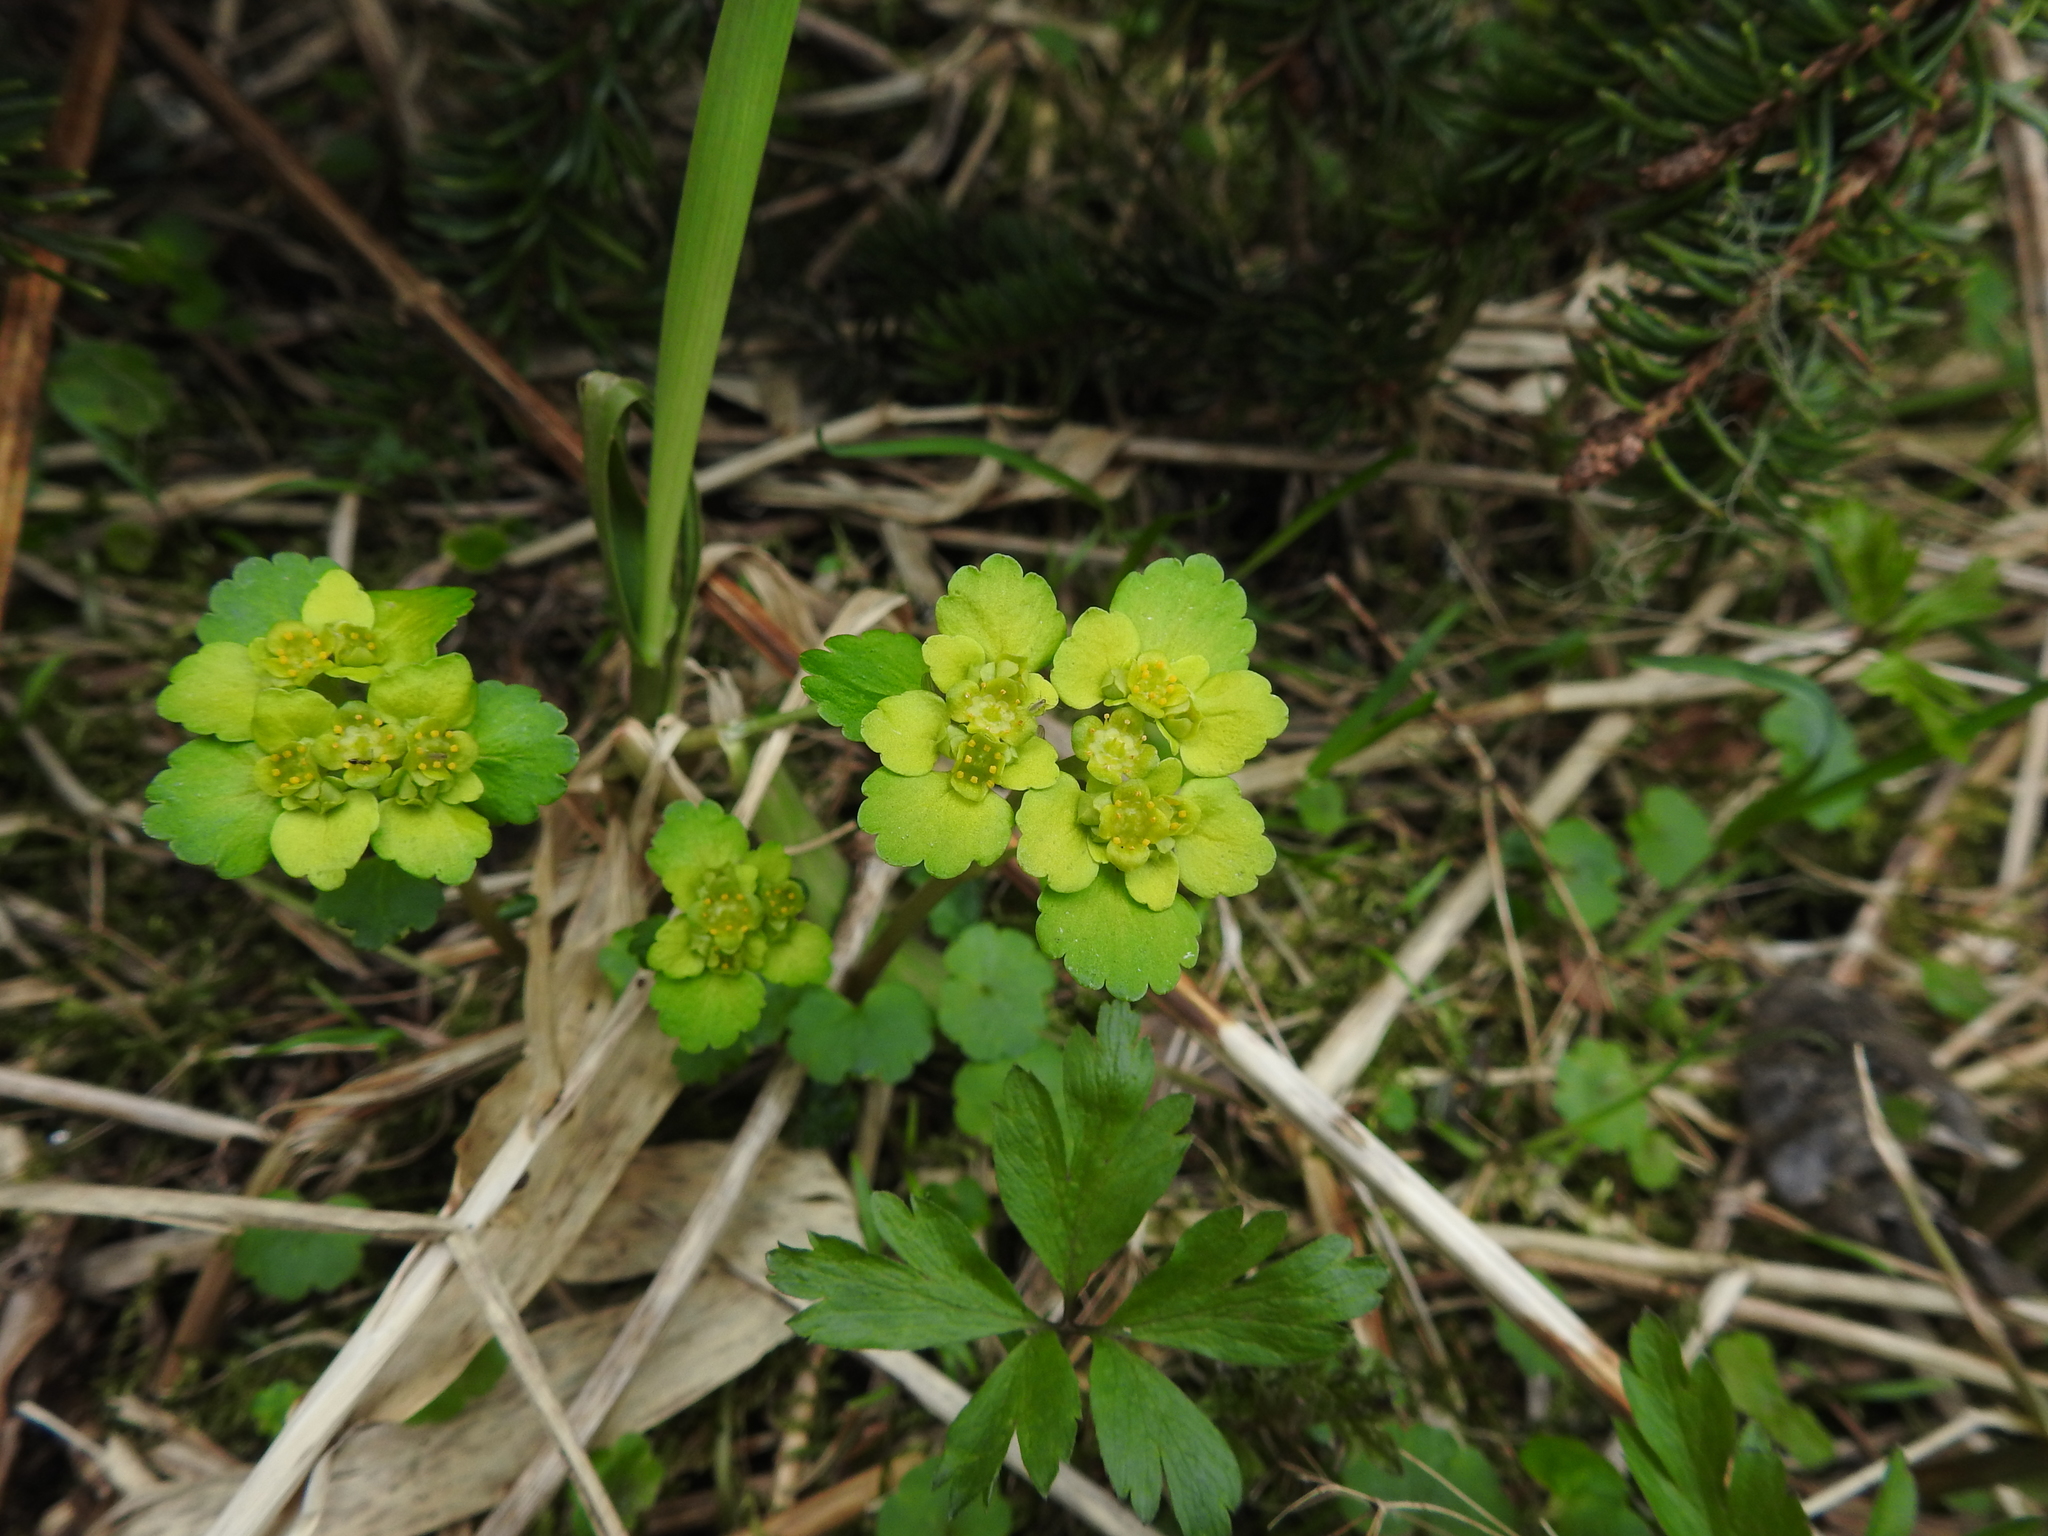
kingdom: Plantae
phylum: Tracheophyta
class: Magnoliopsida
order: Saxifragales
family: Saxifragaceae
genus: Chrysosplenium
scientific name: Chrysosplenium alternifolium
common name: Alternate-leaved golden-saxifrage
